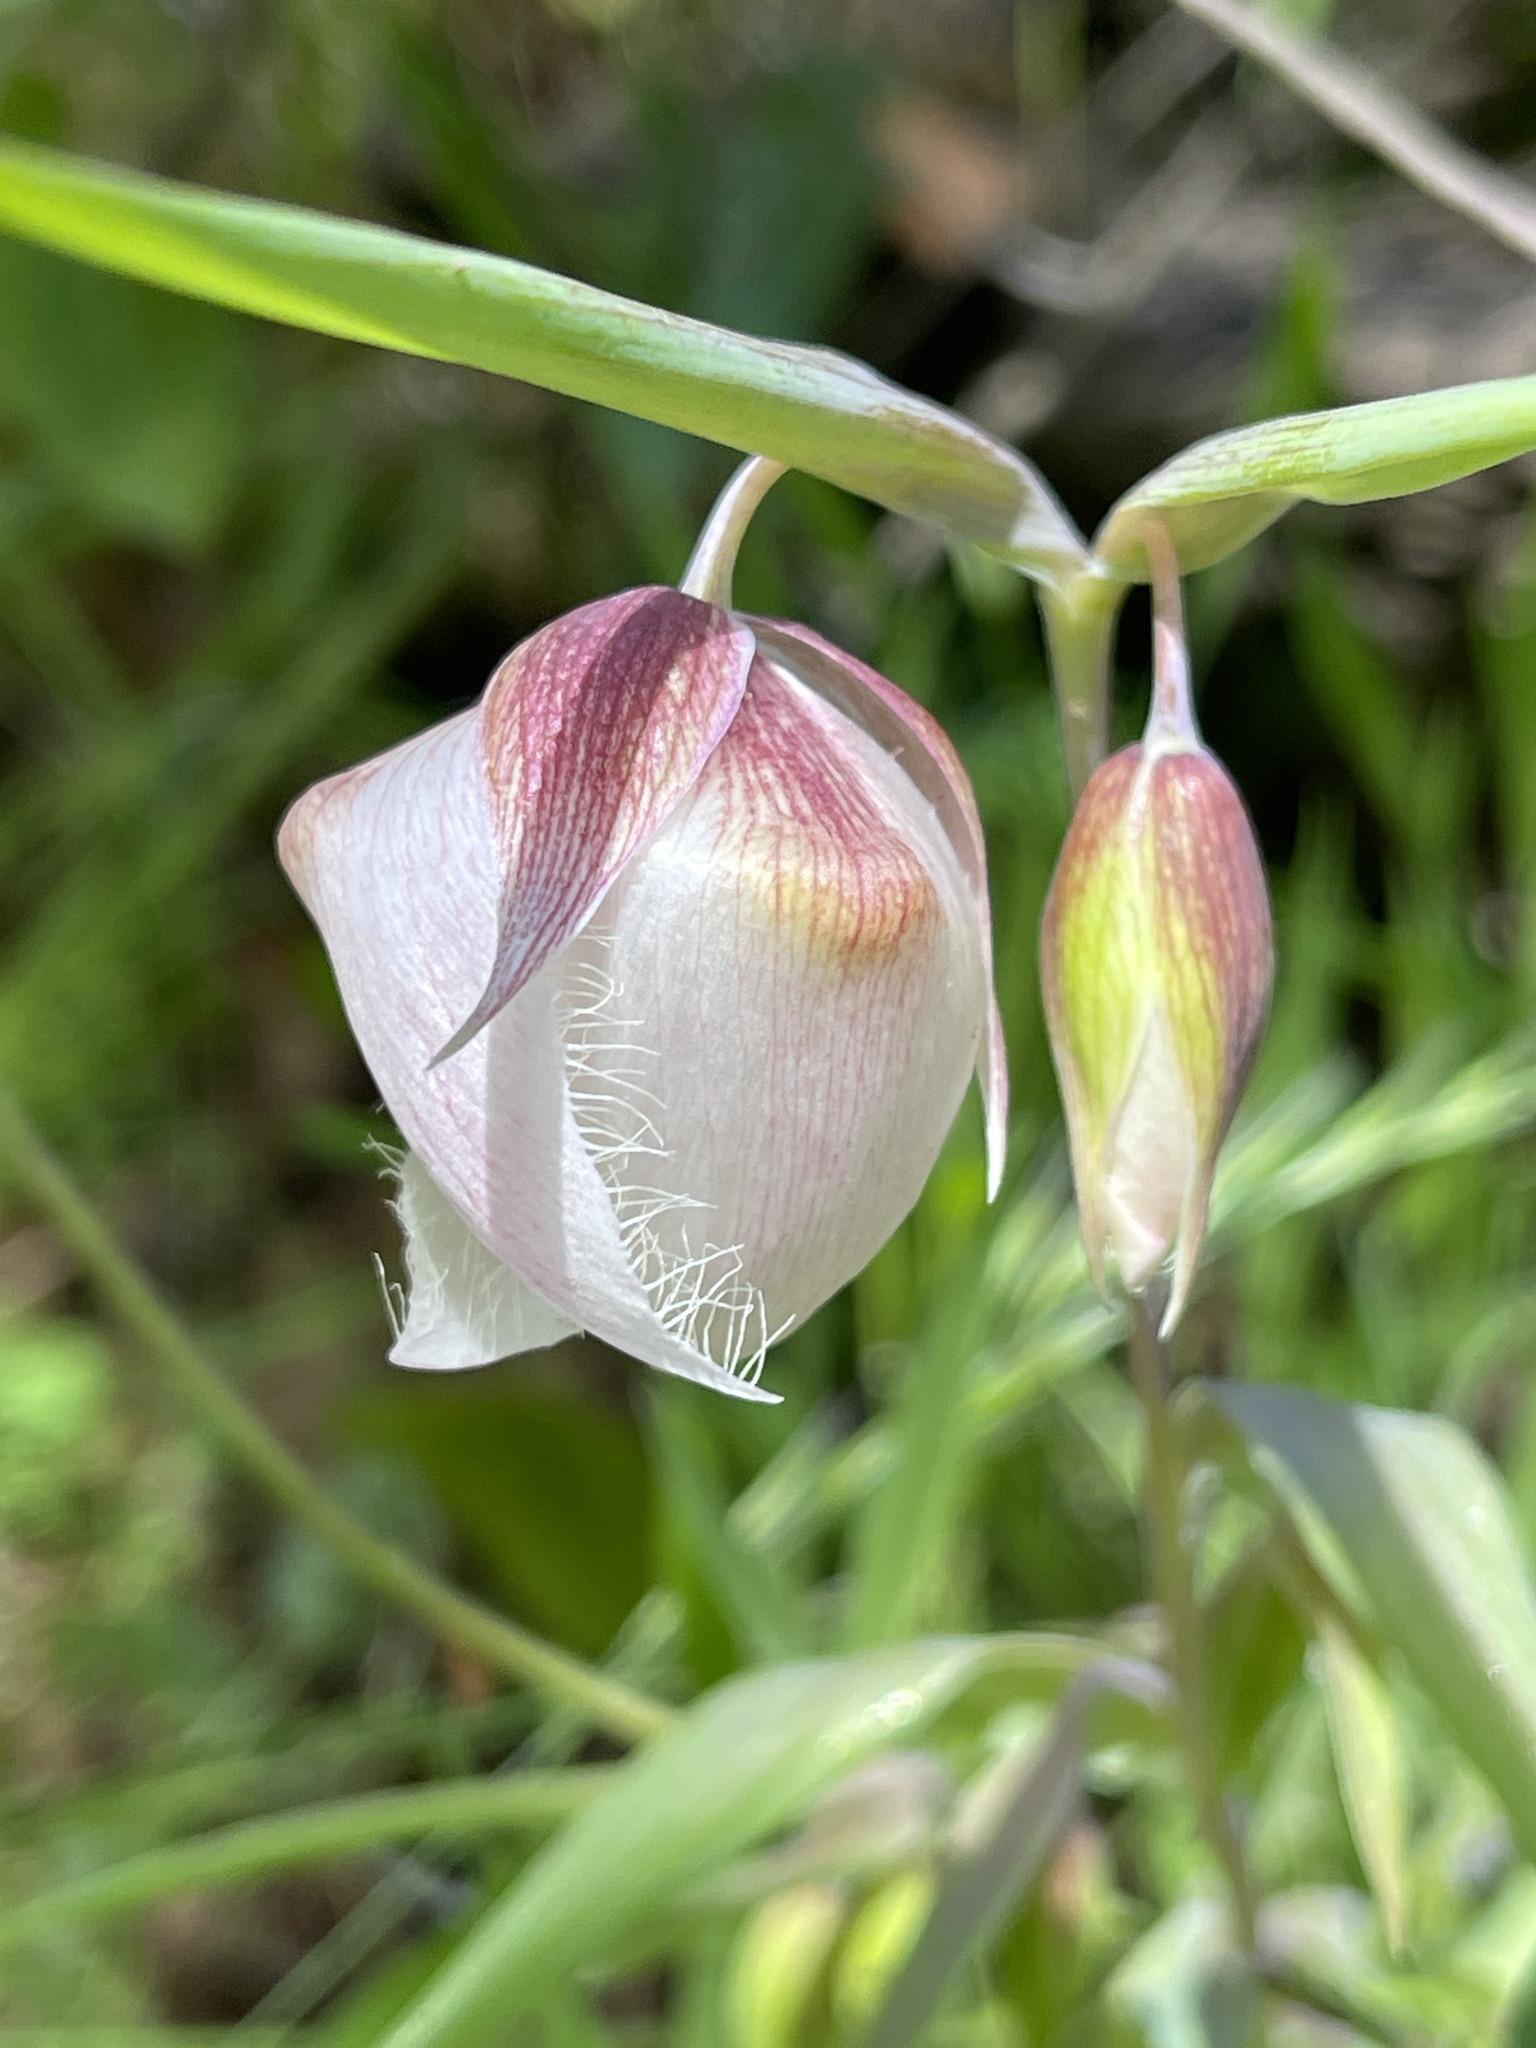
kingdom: Plantae
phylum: Tracheophyta
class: Liliopsida
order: Liliales
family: Liliaceae
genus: Calochortus
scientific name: Calochortus albus
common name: Fairy-lantern
